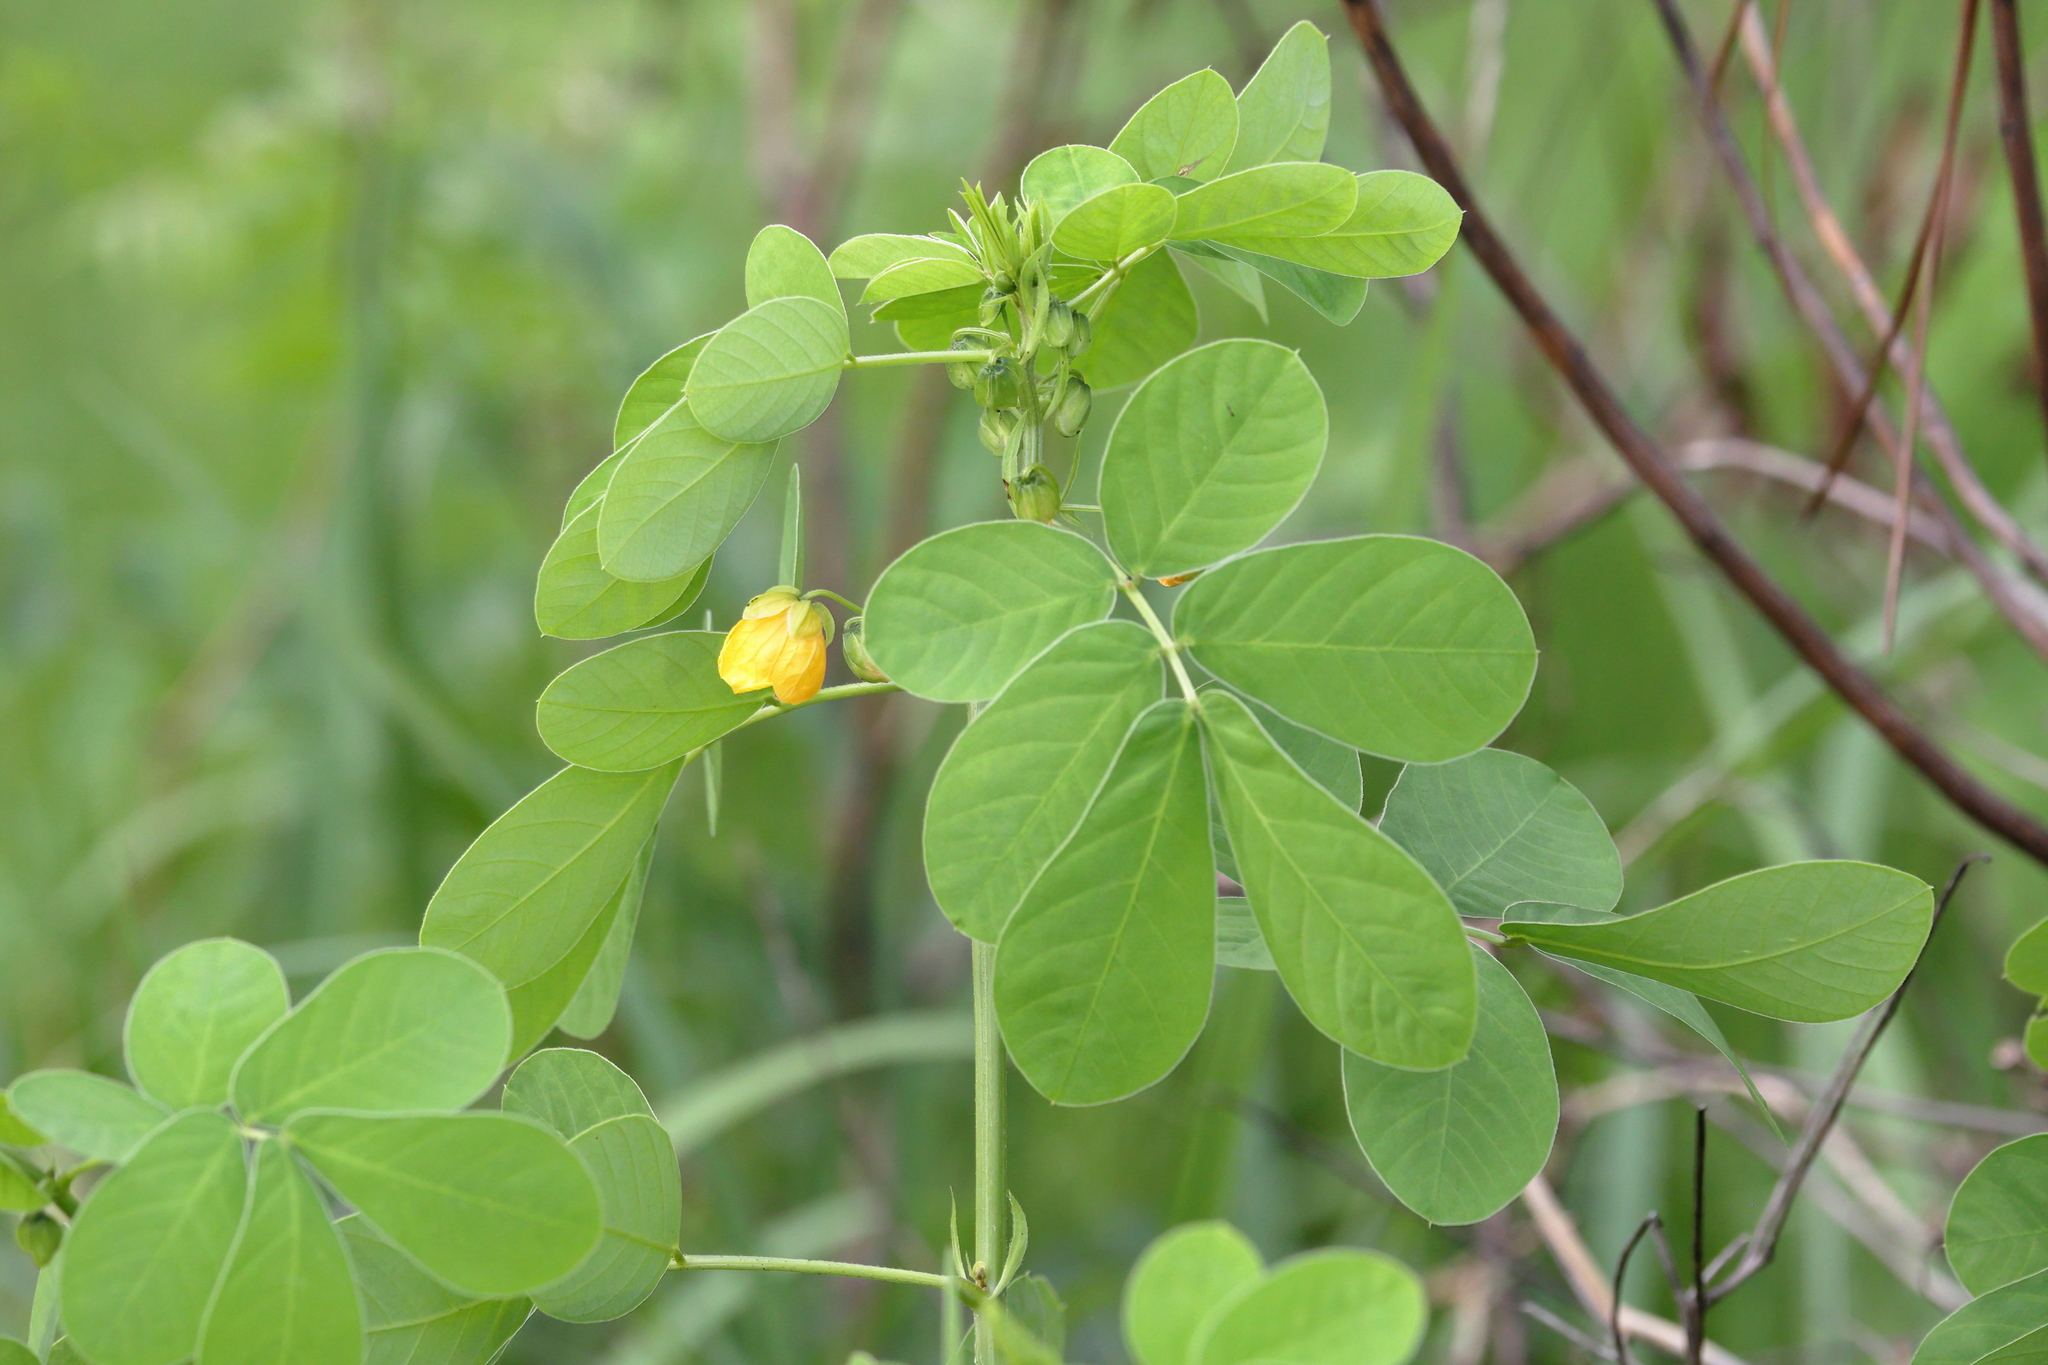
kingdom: Plantae
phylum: Tracheophyta
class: Magnoliopsida
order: Fabales
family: Fabaceae
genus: Senna
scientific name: Senna obtusifolia
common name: Java-bean
